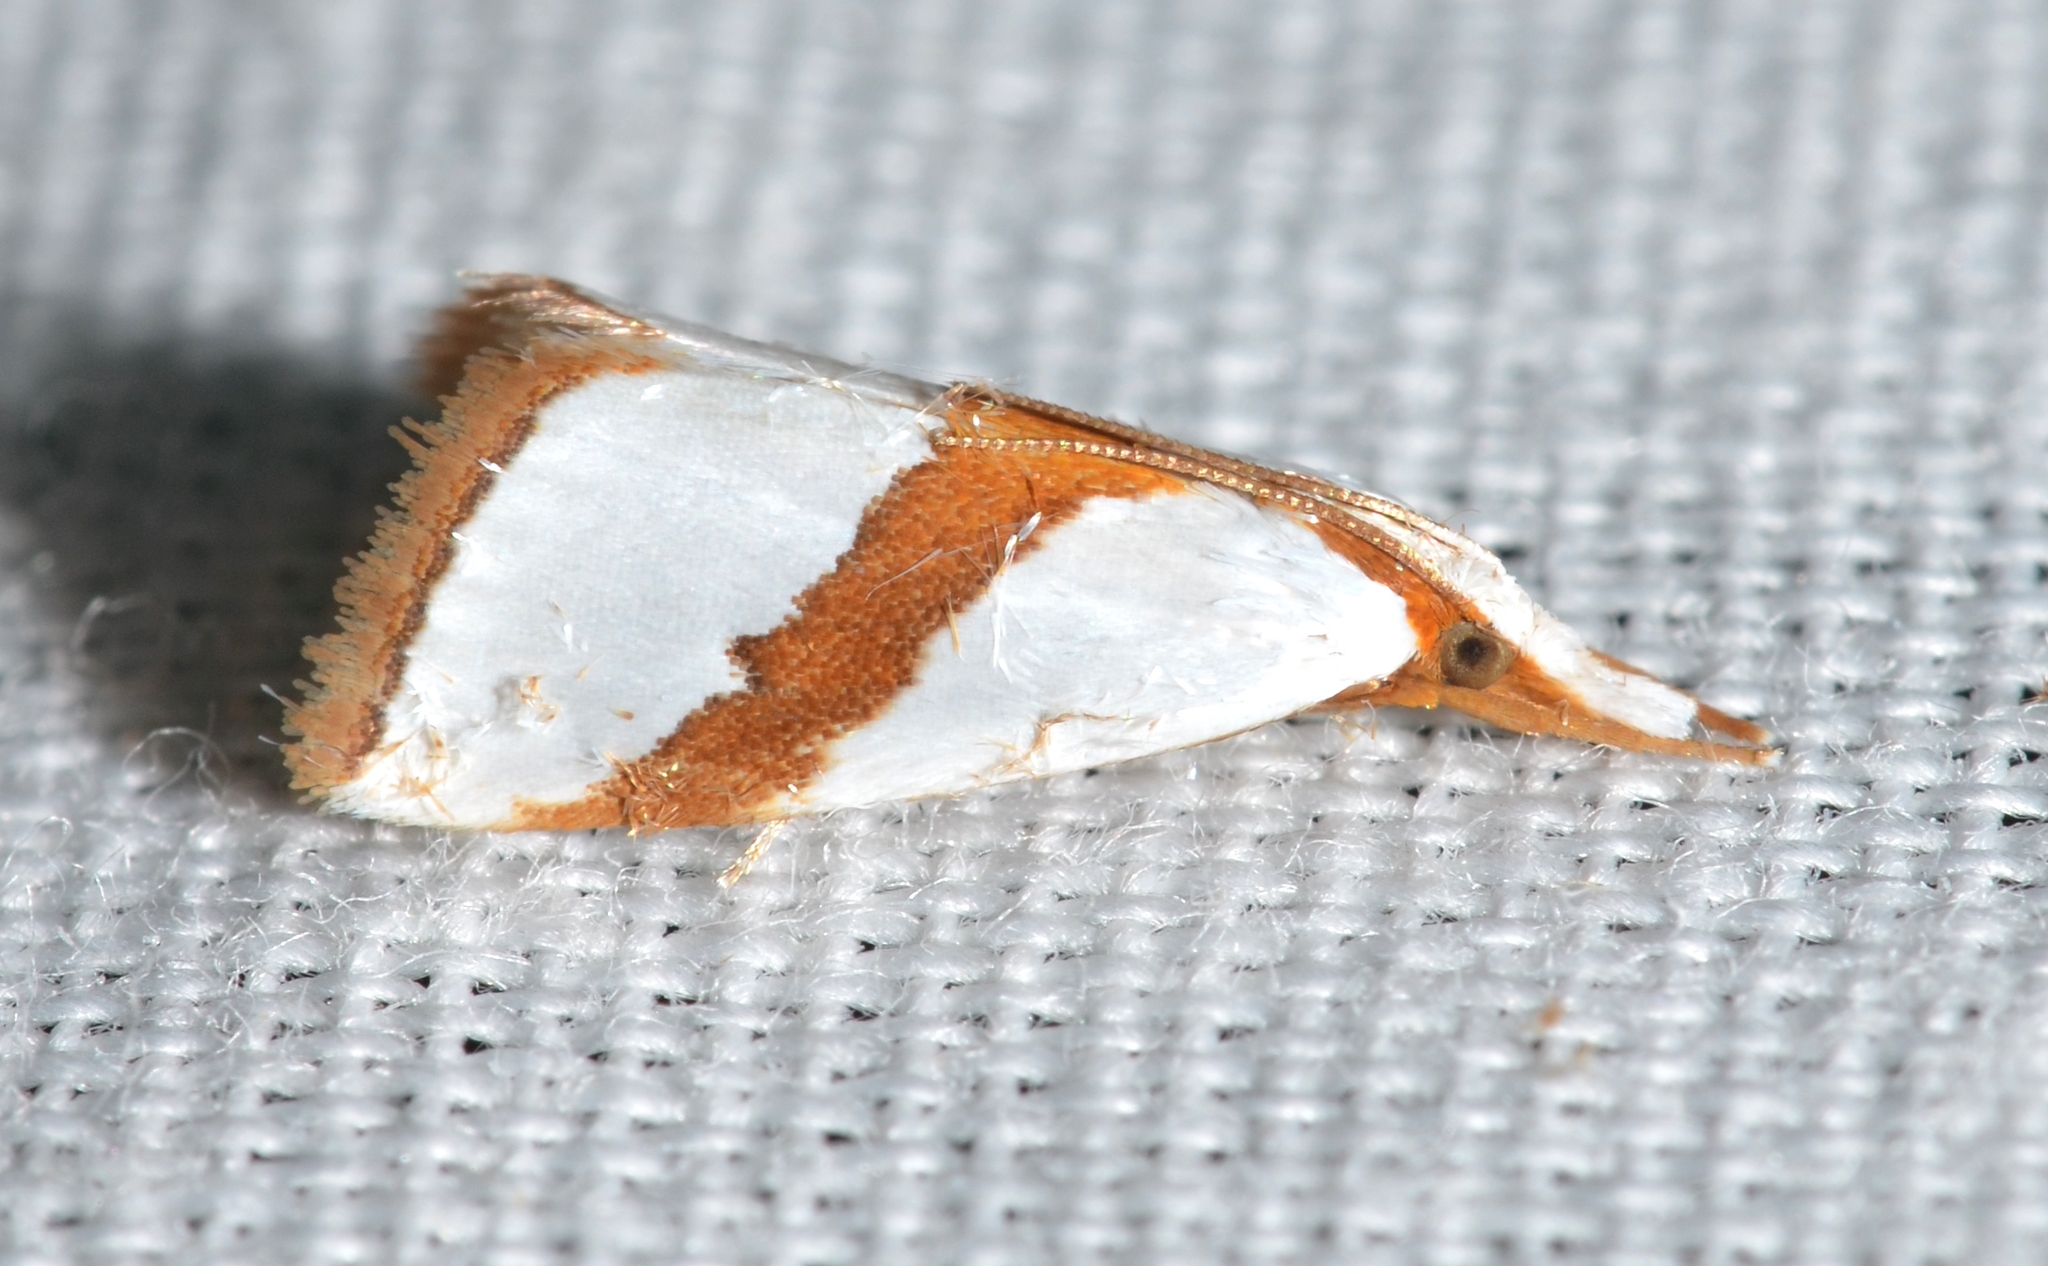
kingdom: Animalia
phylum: Arthropoda
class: Insecta
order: Lepidoptera
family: Crambidae
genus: Vaxi
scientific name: Vaxi critica
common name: Straight-lined vaxi moth
